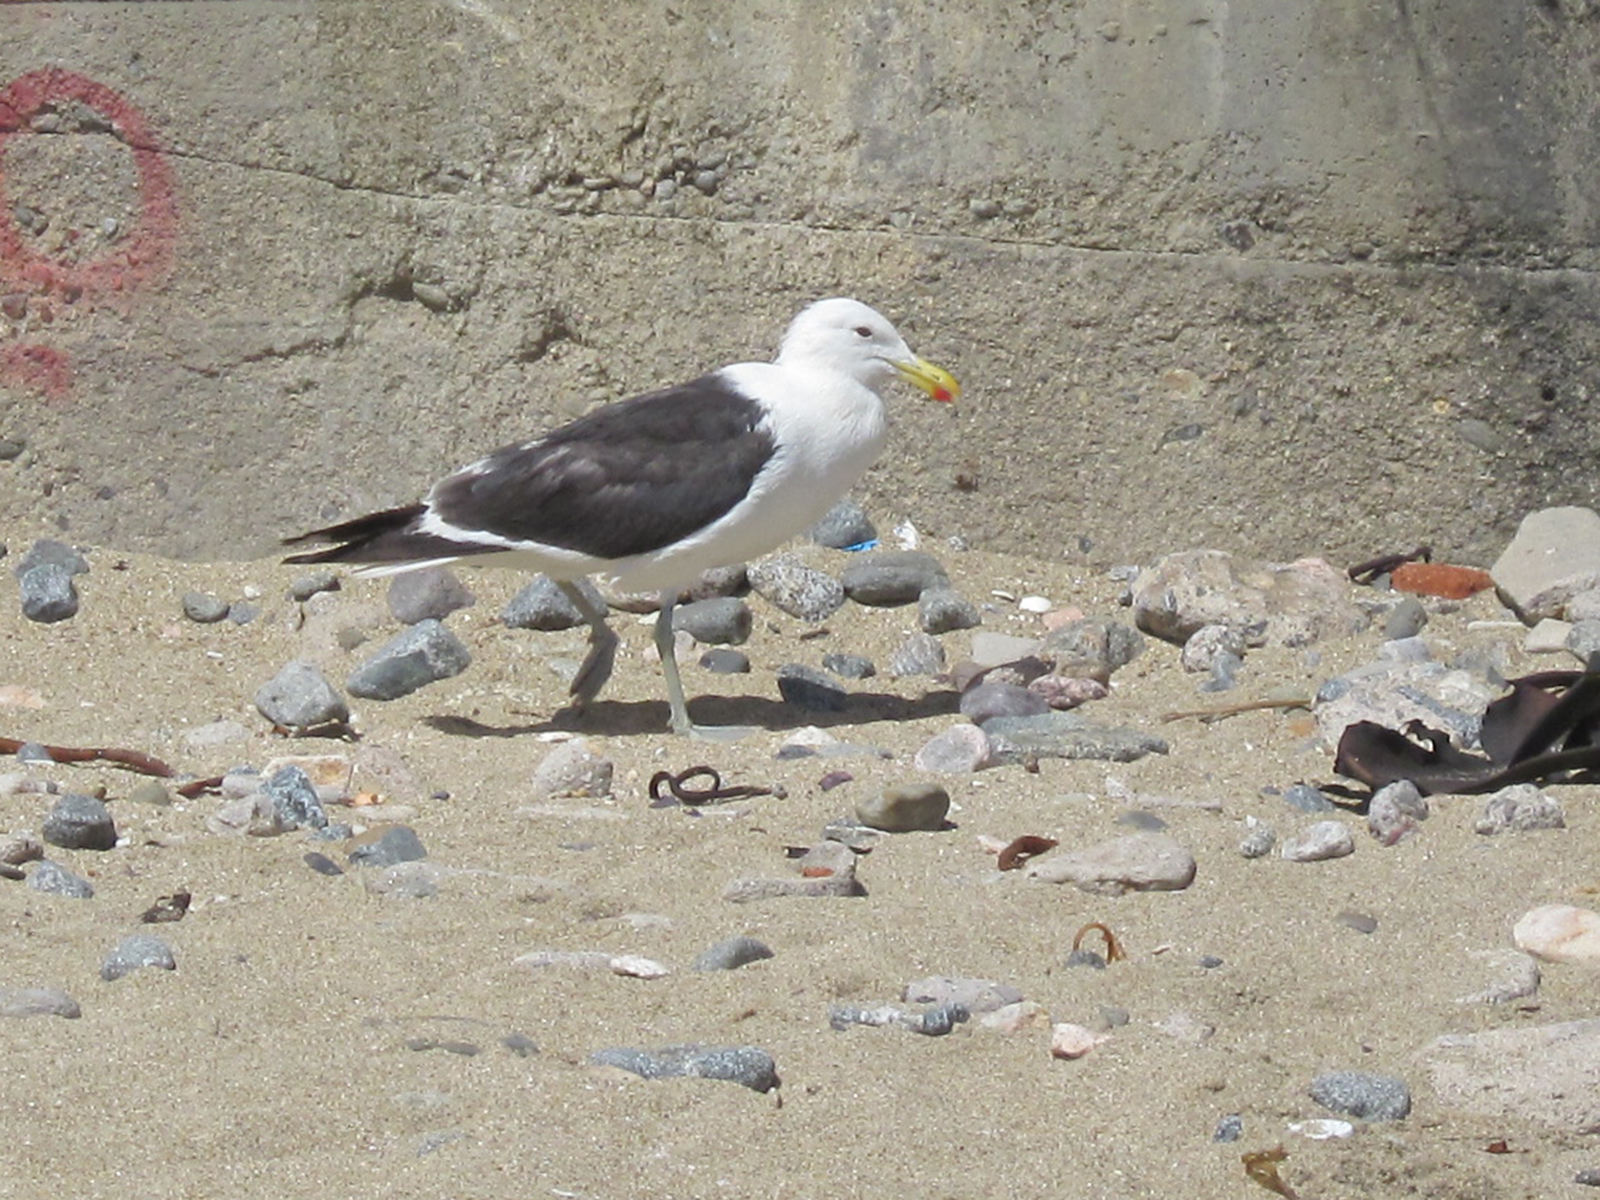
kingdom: Animalia
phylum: Chordata
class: Aves
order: Charadriiformes
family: Laridae
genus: Larus
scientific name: Larus dominicanus
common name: Kelp gull
